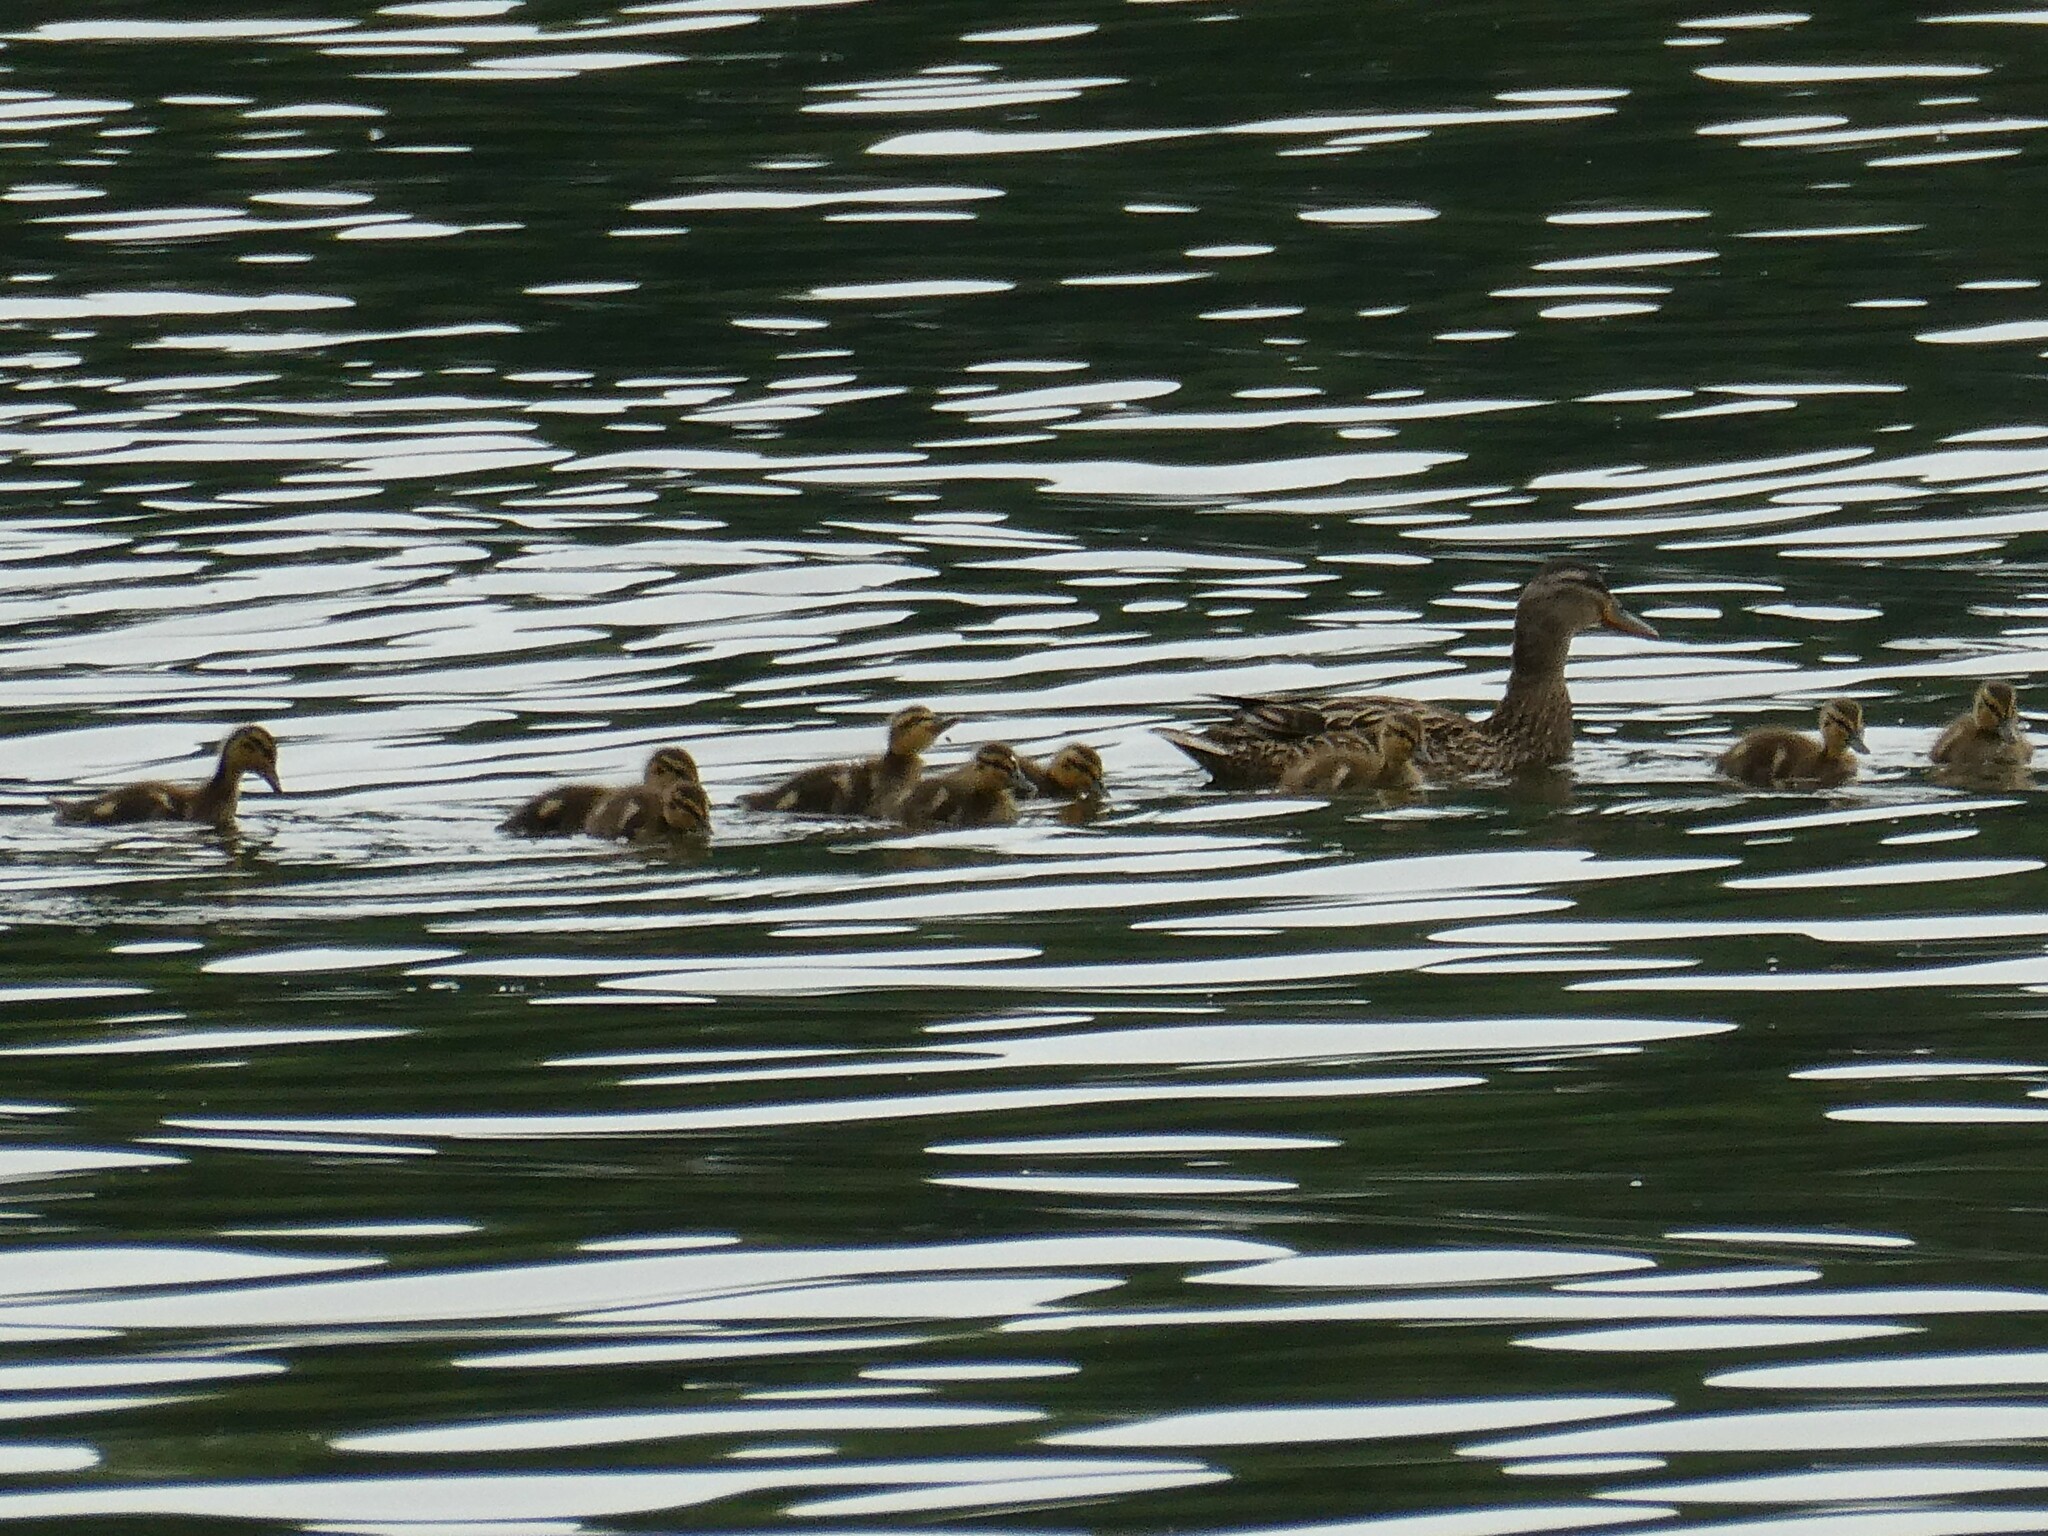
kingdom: Animalia
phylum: Chordata
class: Aves
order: Anseriformes
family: Anatidae
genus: Anas
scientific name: Anas platyrhynchos
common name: Mallard
